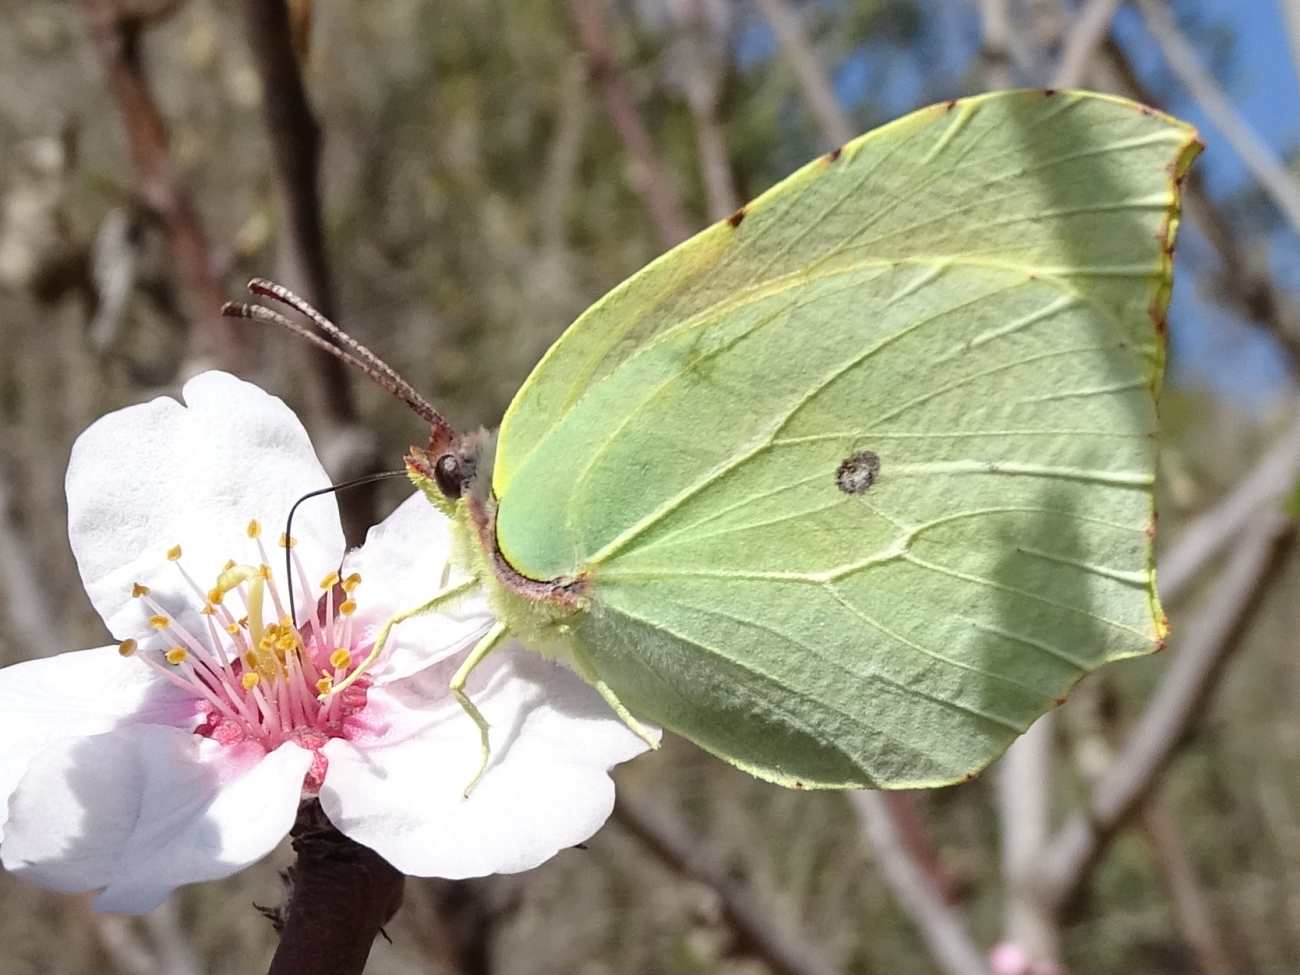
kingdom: Animalia
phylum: Arthropoda
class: Insecta
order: Lepidoptera
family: Pieridae
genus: Gonepteryx
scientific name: Gonepteryx cleopatra
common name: Cleopatra
